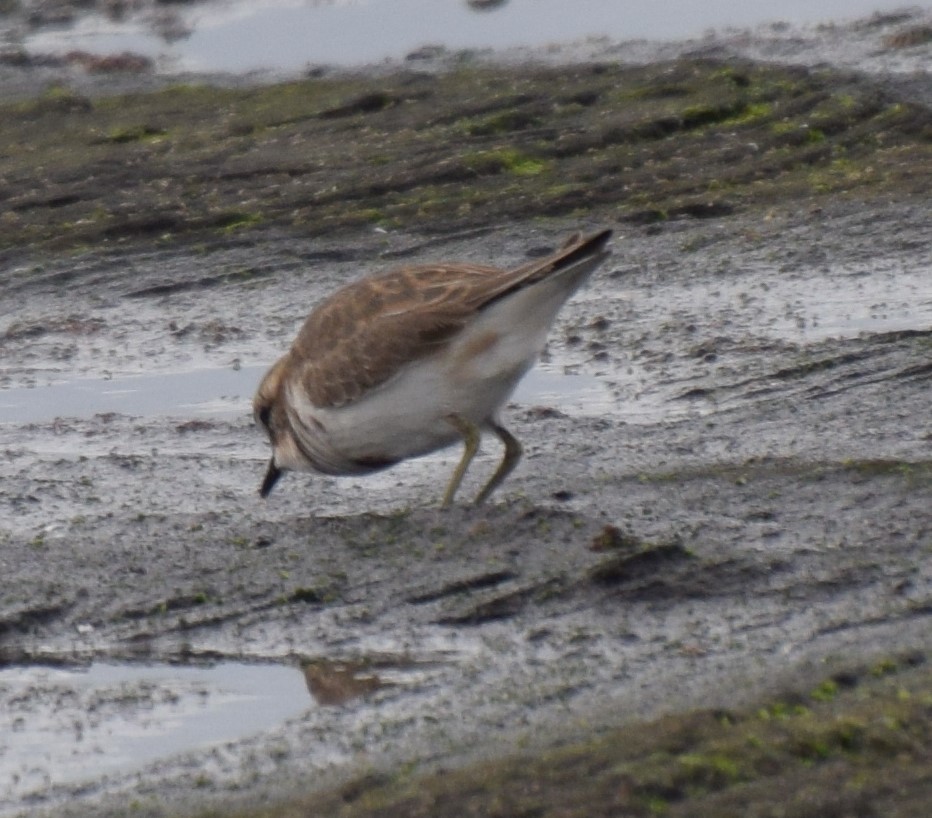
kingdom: Animalia
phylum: Chordata
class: Aves
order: Charadriiformes
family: Charadriidae
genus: Anarhynchus
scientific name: Anarhynchus
